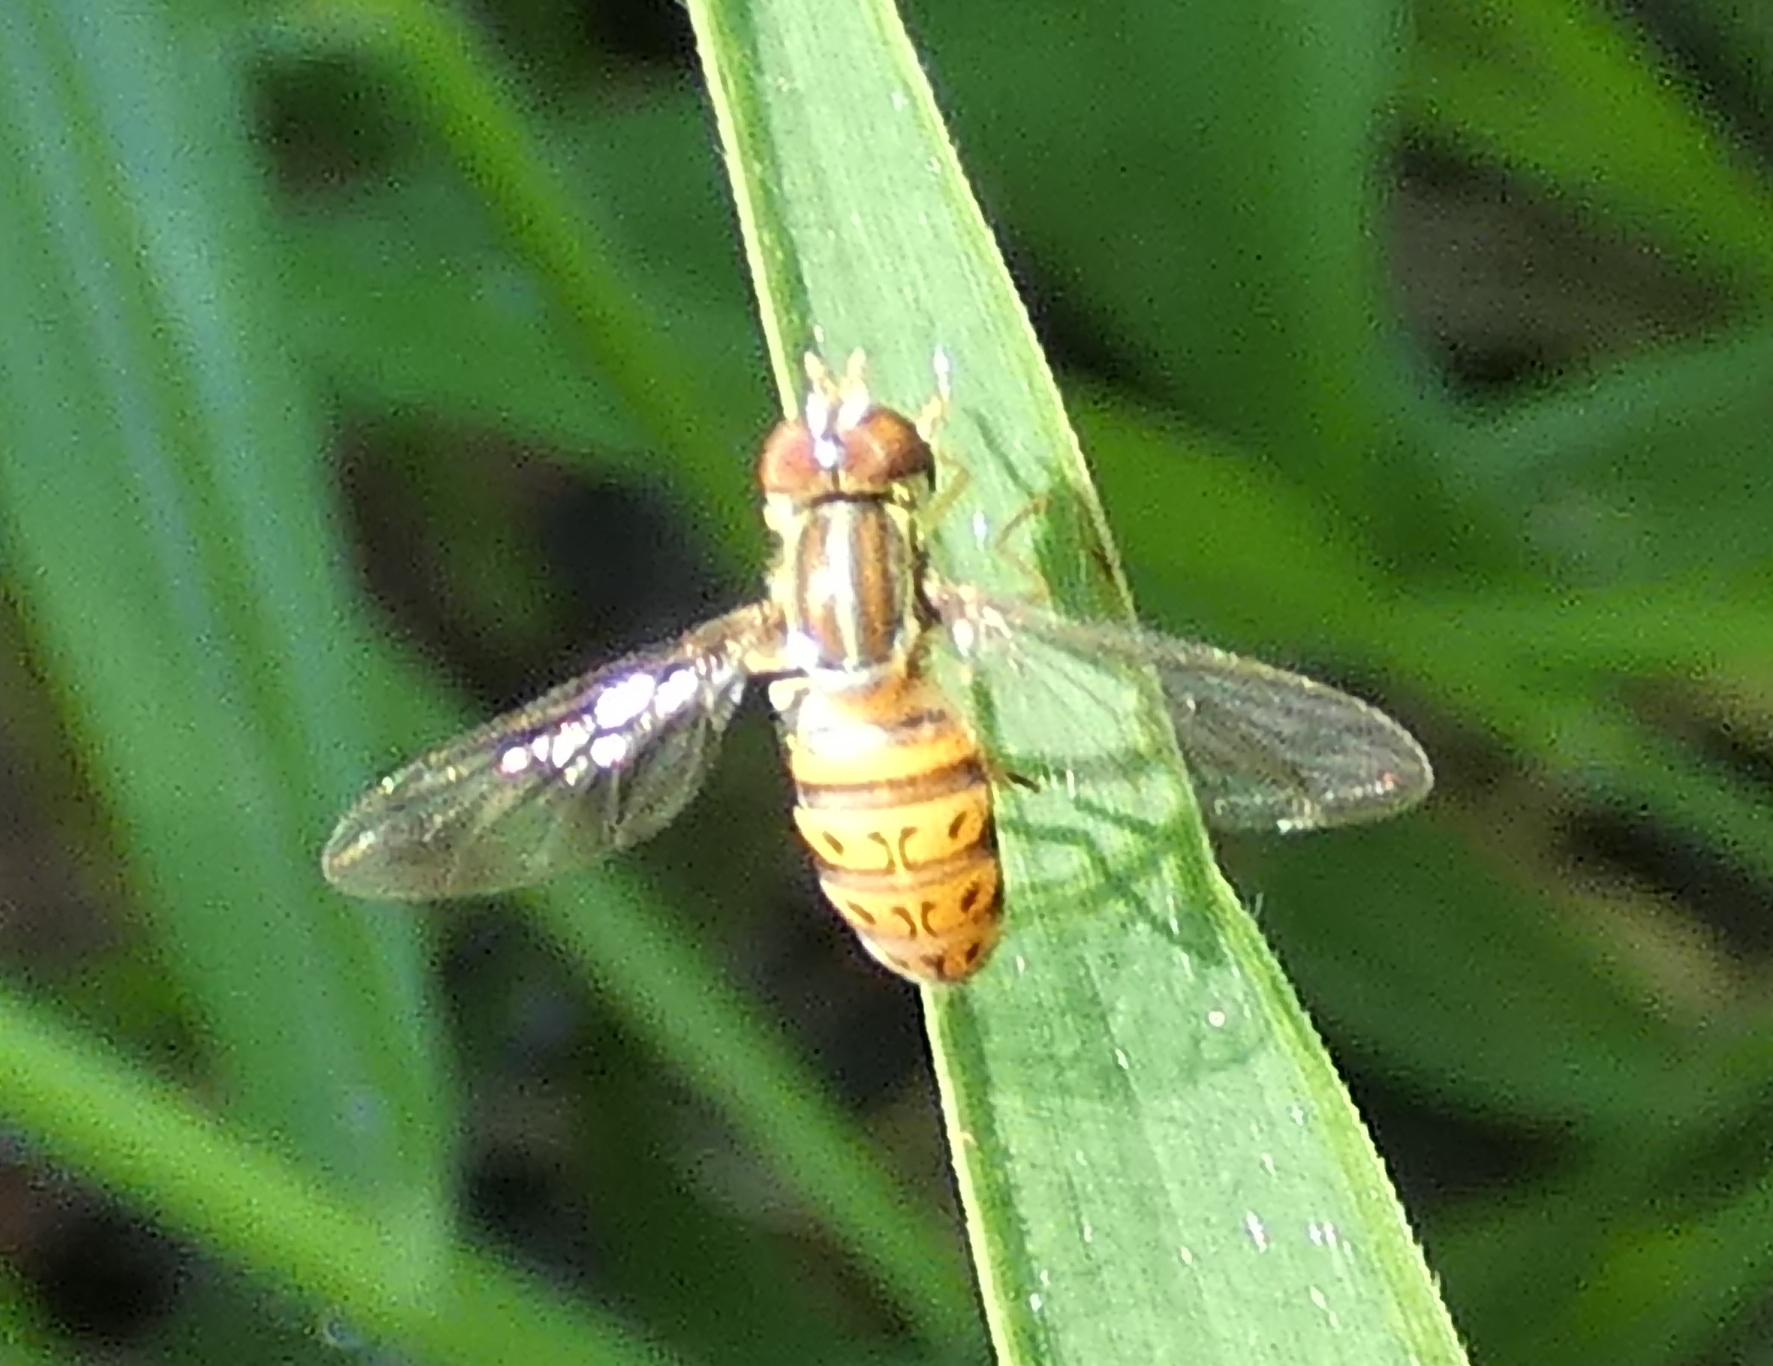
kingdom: Animalia
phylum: Arthropoda
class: Insecta
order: Diptera
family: Syrphidae
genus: Toxomerus
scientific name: Toxomerus pulchellus
